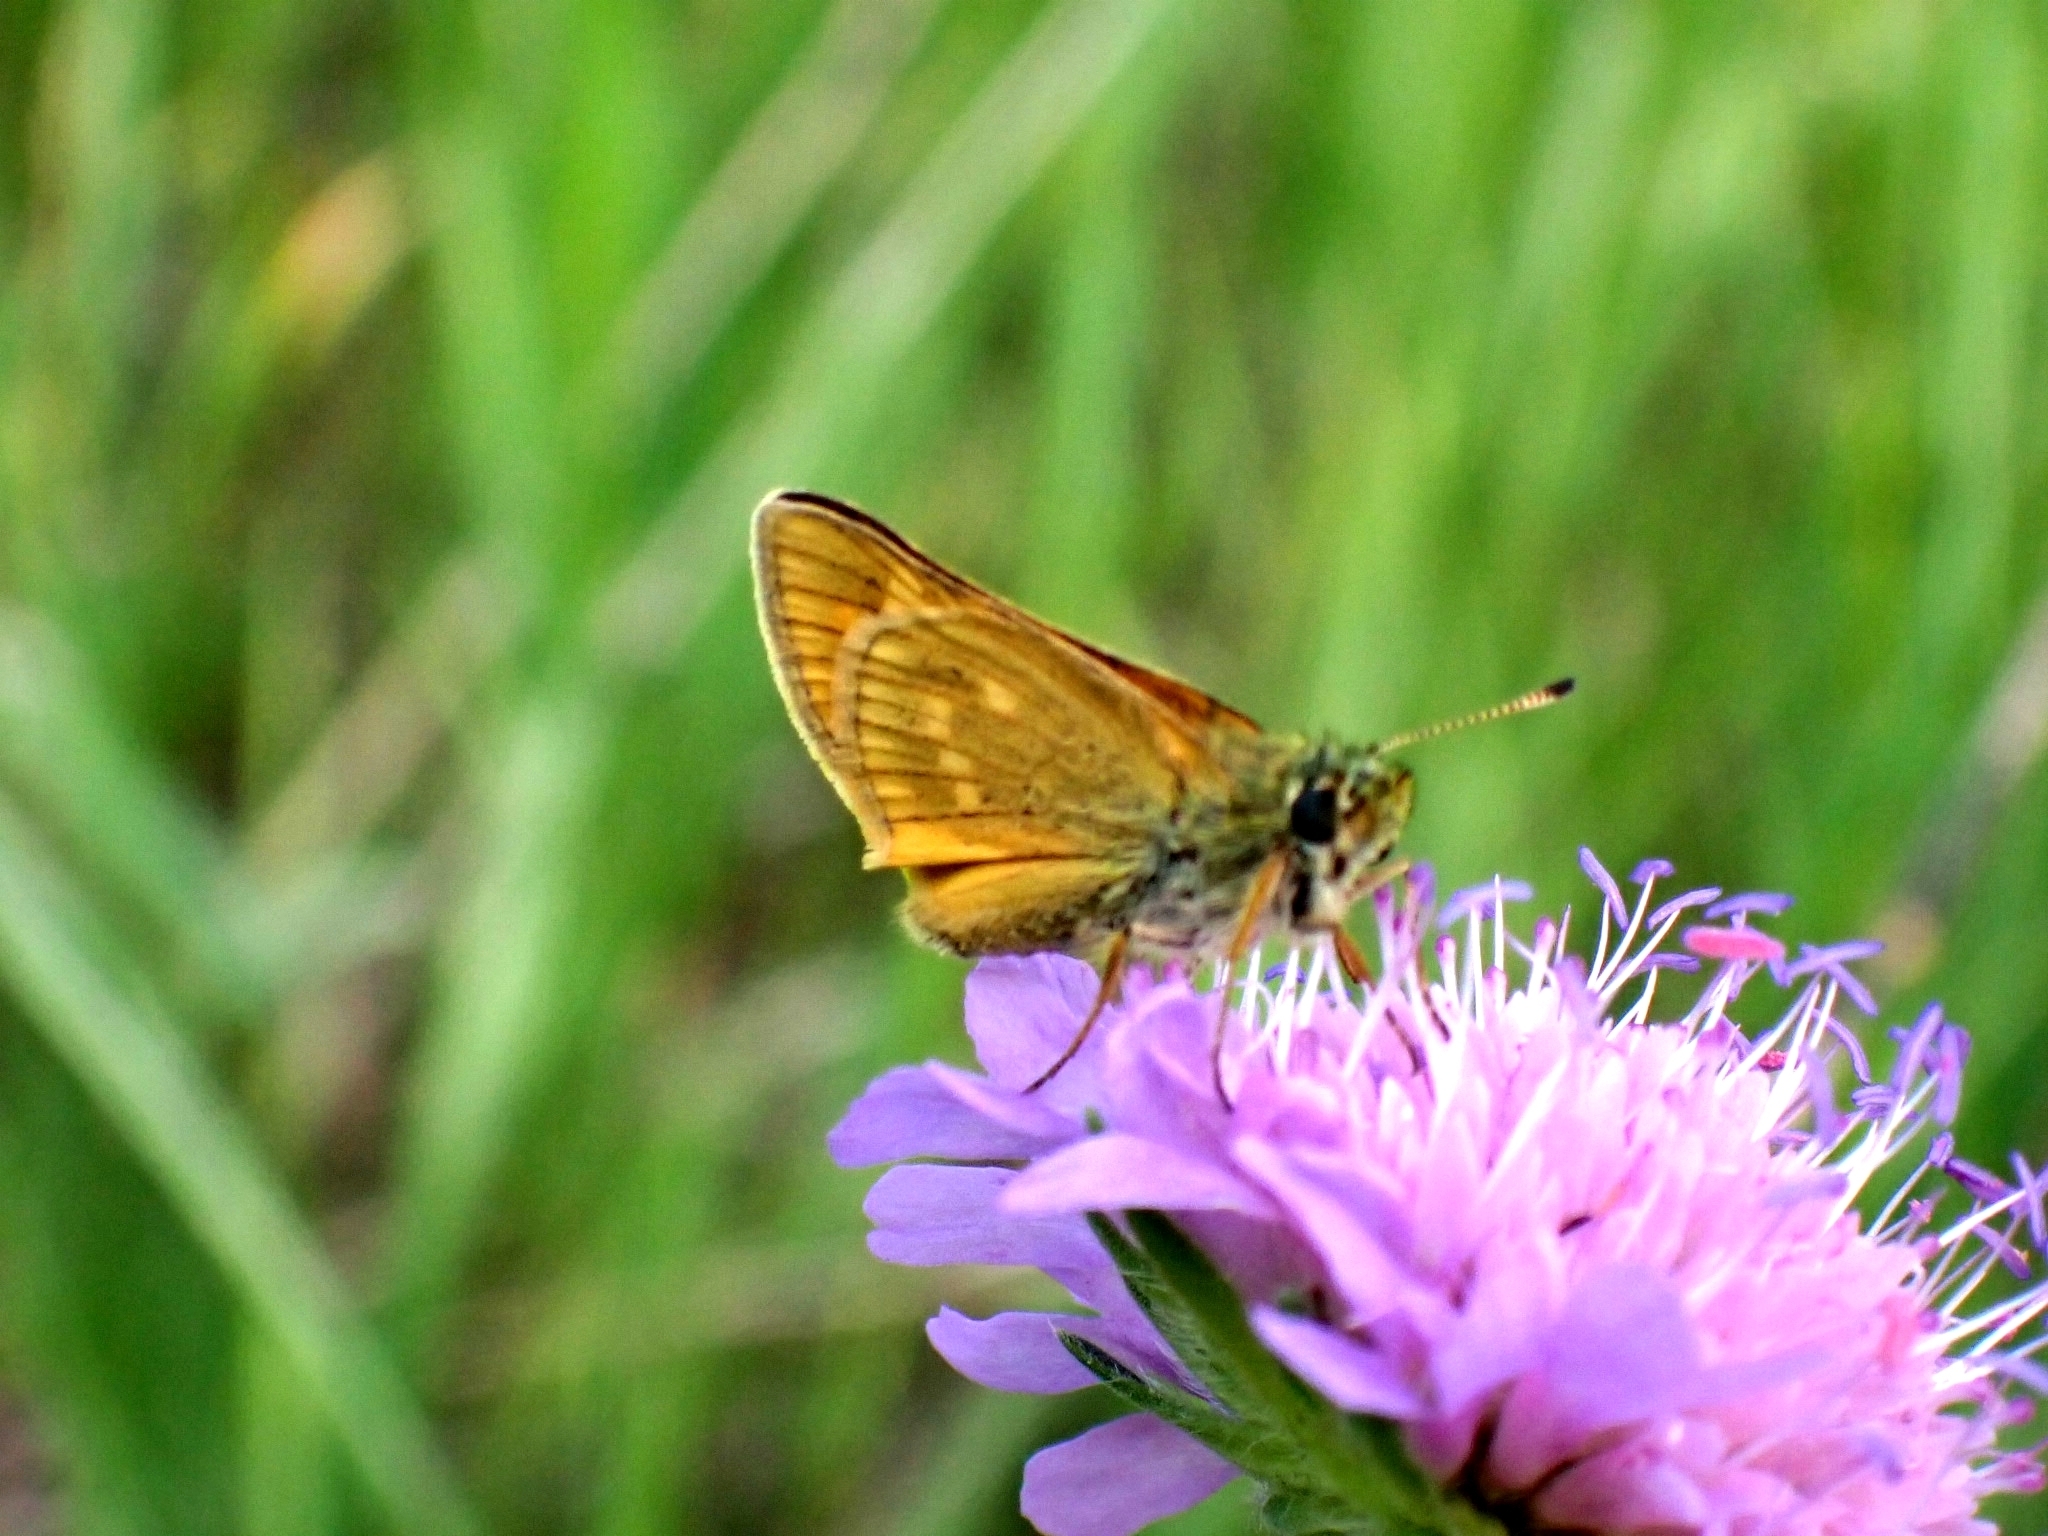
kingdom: Animalia
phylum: Arthropoda
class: Insecta
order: Lepidoptera
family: Hesperiidae
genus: Ochlodes
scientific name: Ochlodes venata
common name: Large skipper
